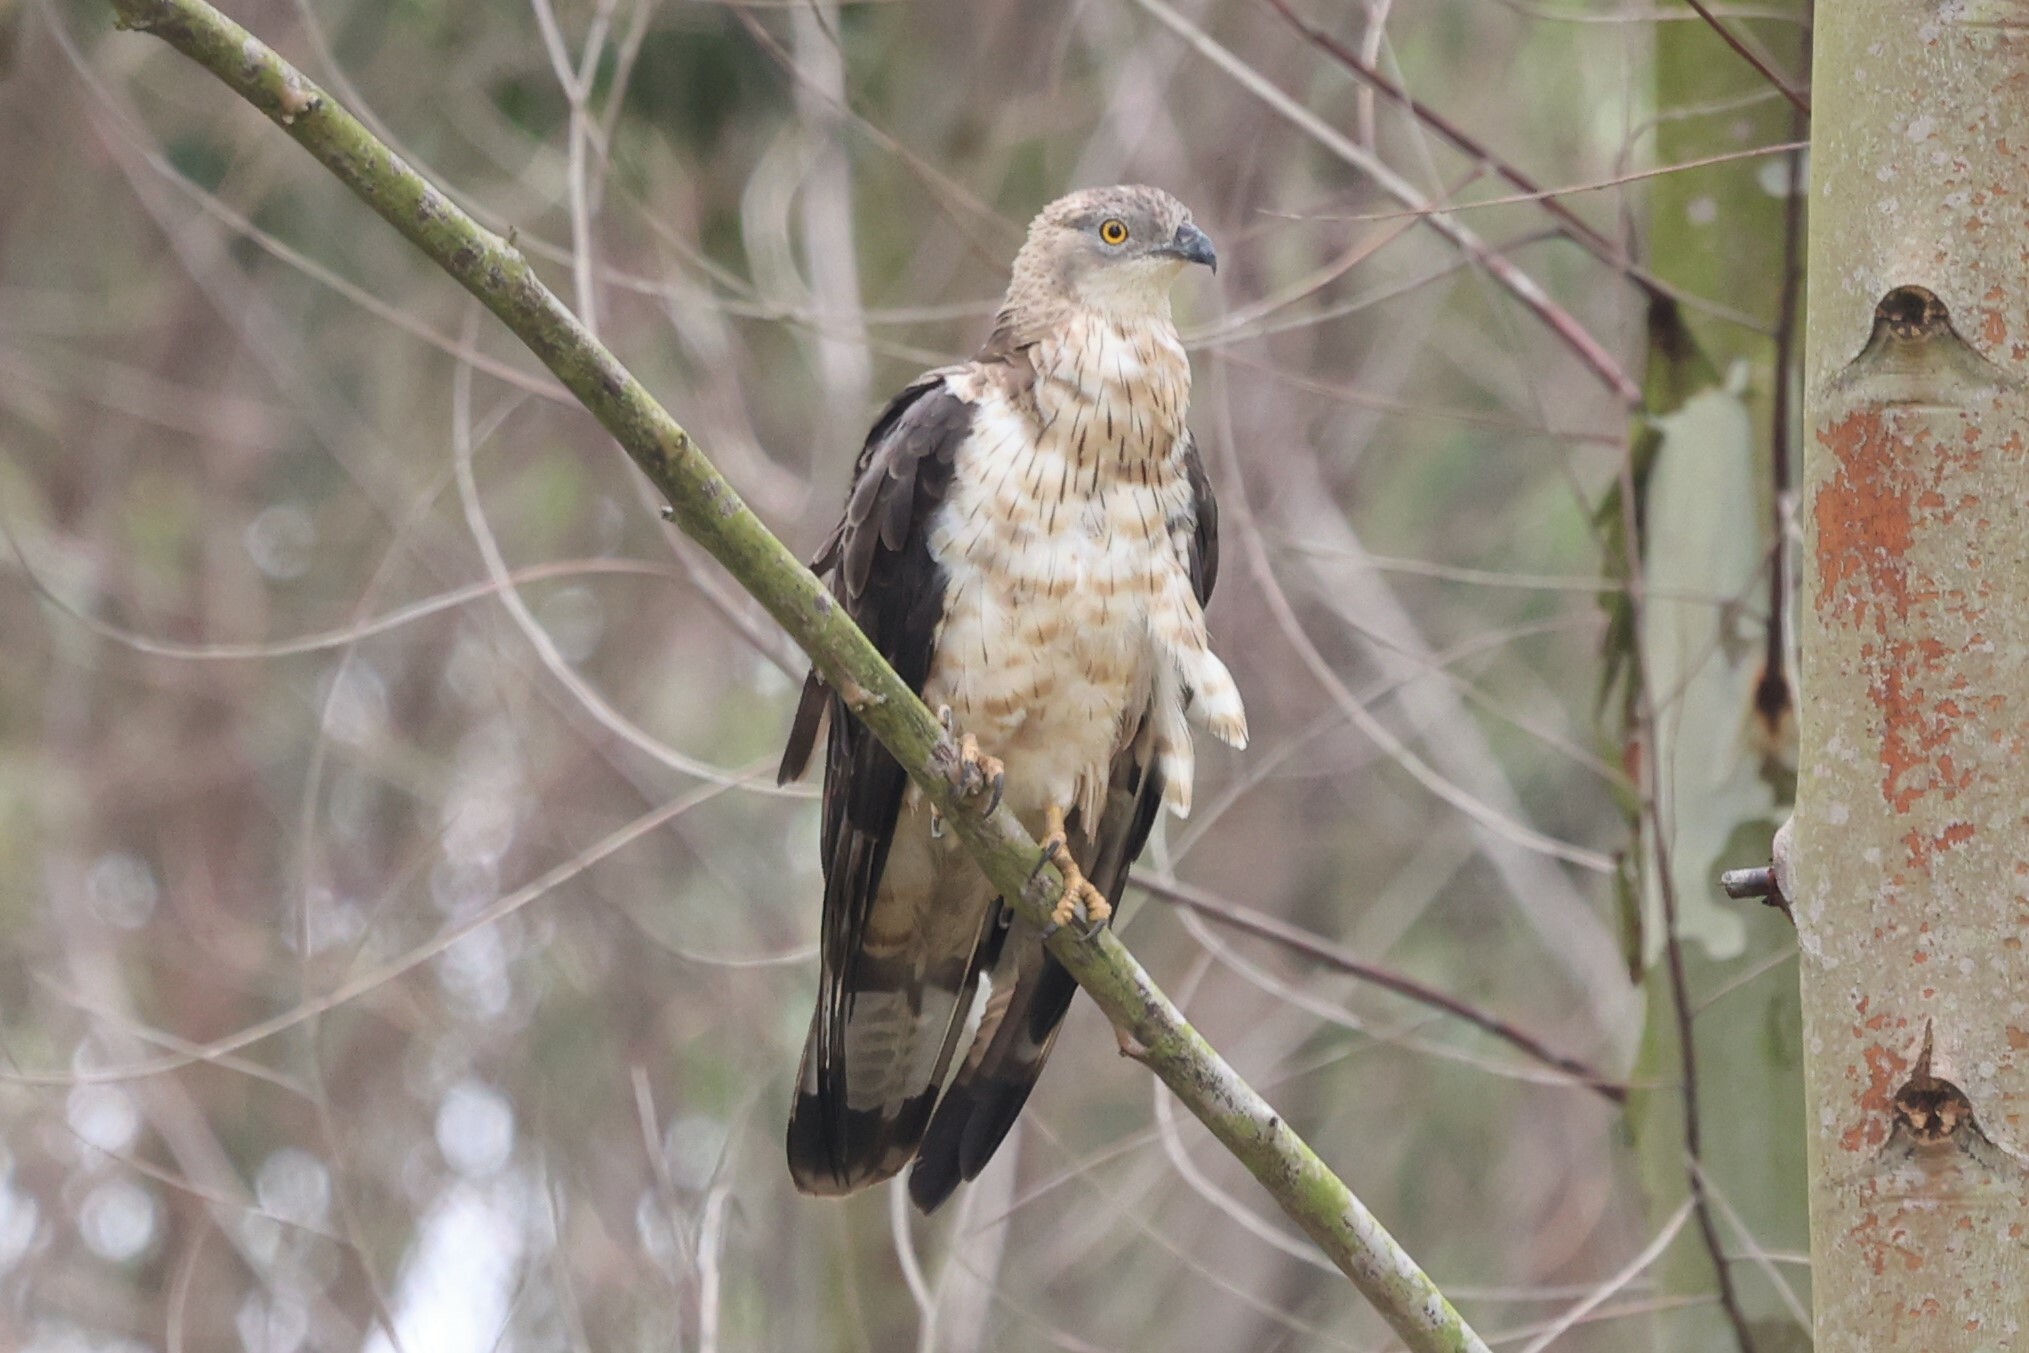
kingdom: Animalia
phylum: Chordata
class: Aves
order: Accipitriformes
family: Accipitridae
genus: Pernis
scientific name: Pernis apivorus
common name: European honey buzzard
